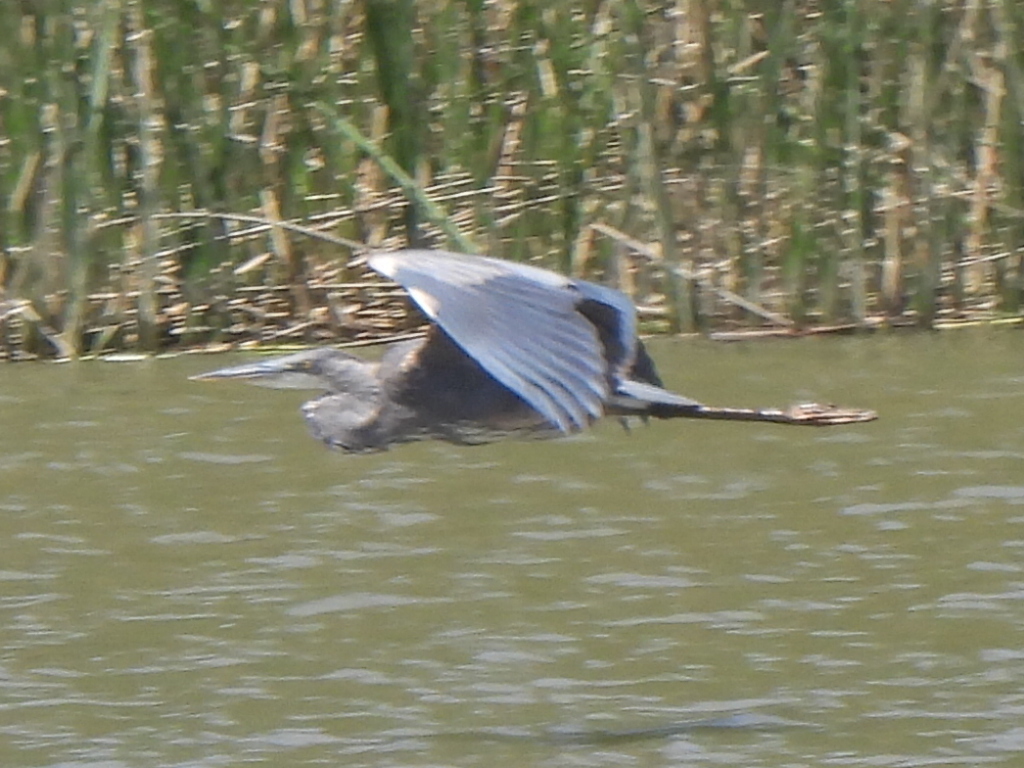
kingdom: Animalia
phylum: Chordata
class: Aves
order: Pelecaniformes
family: Ardeidae
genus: Ardea
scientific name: Ardea herodias
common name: Great blue heron
